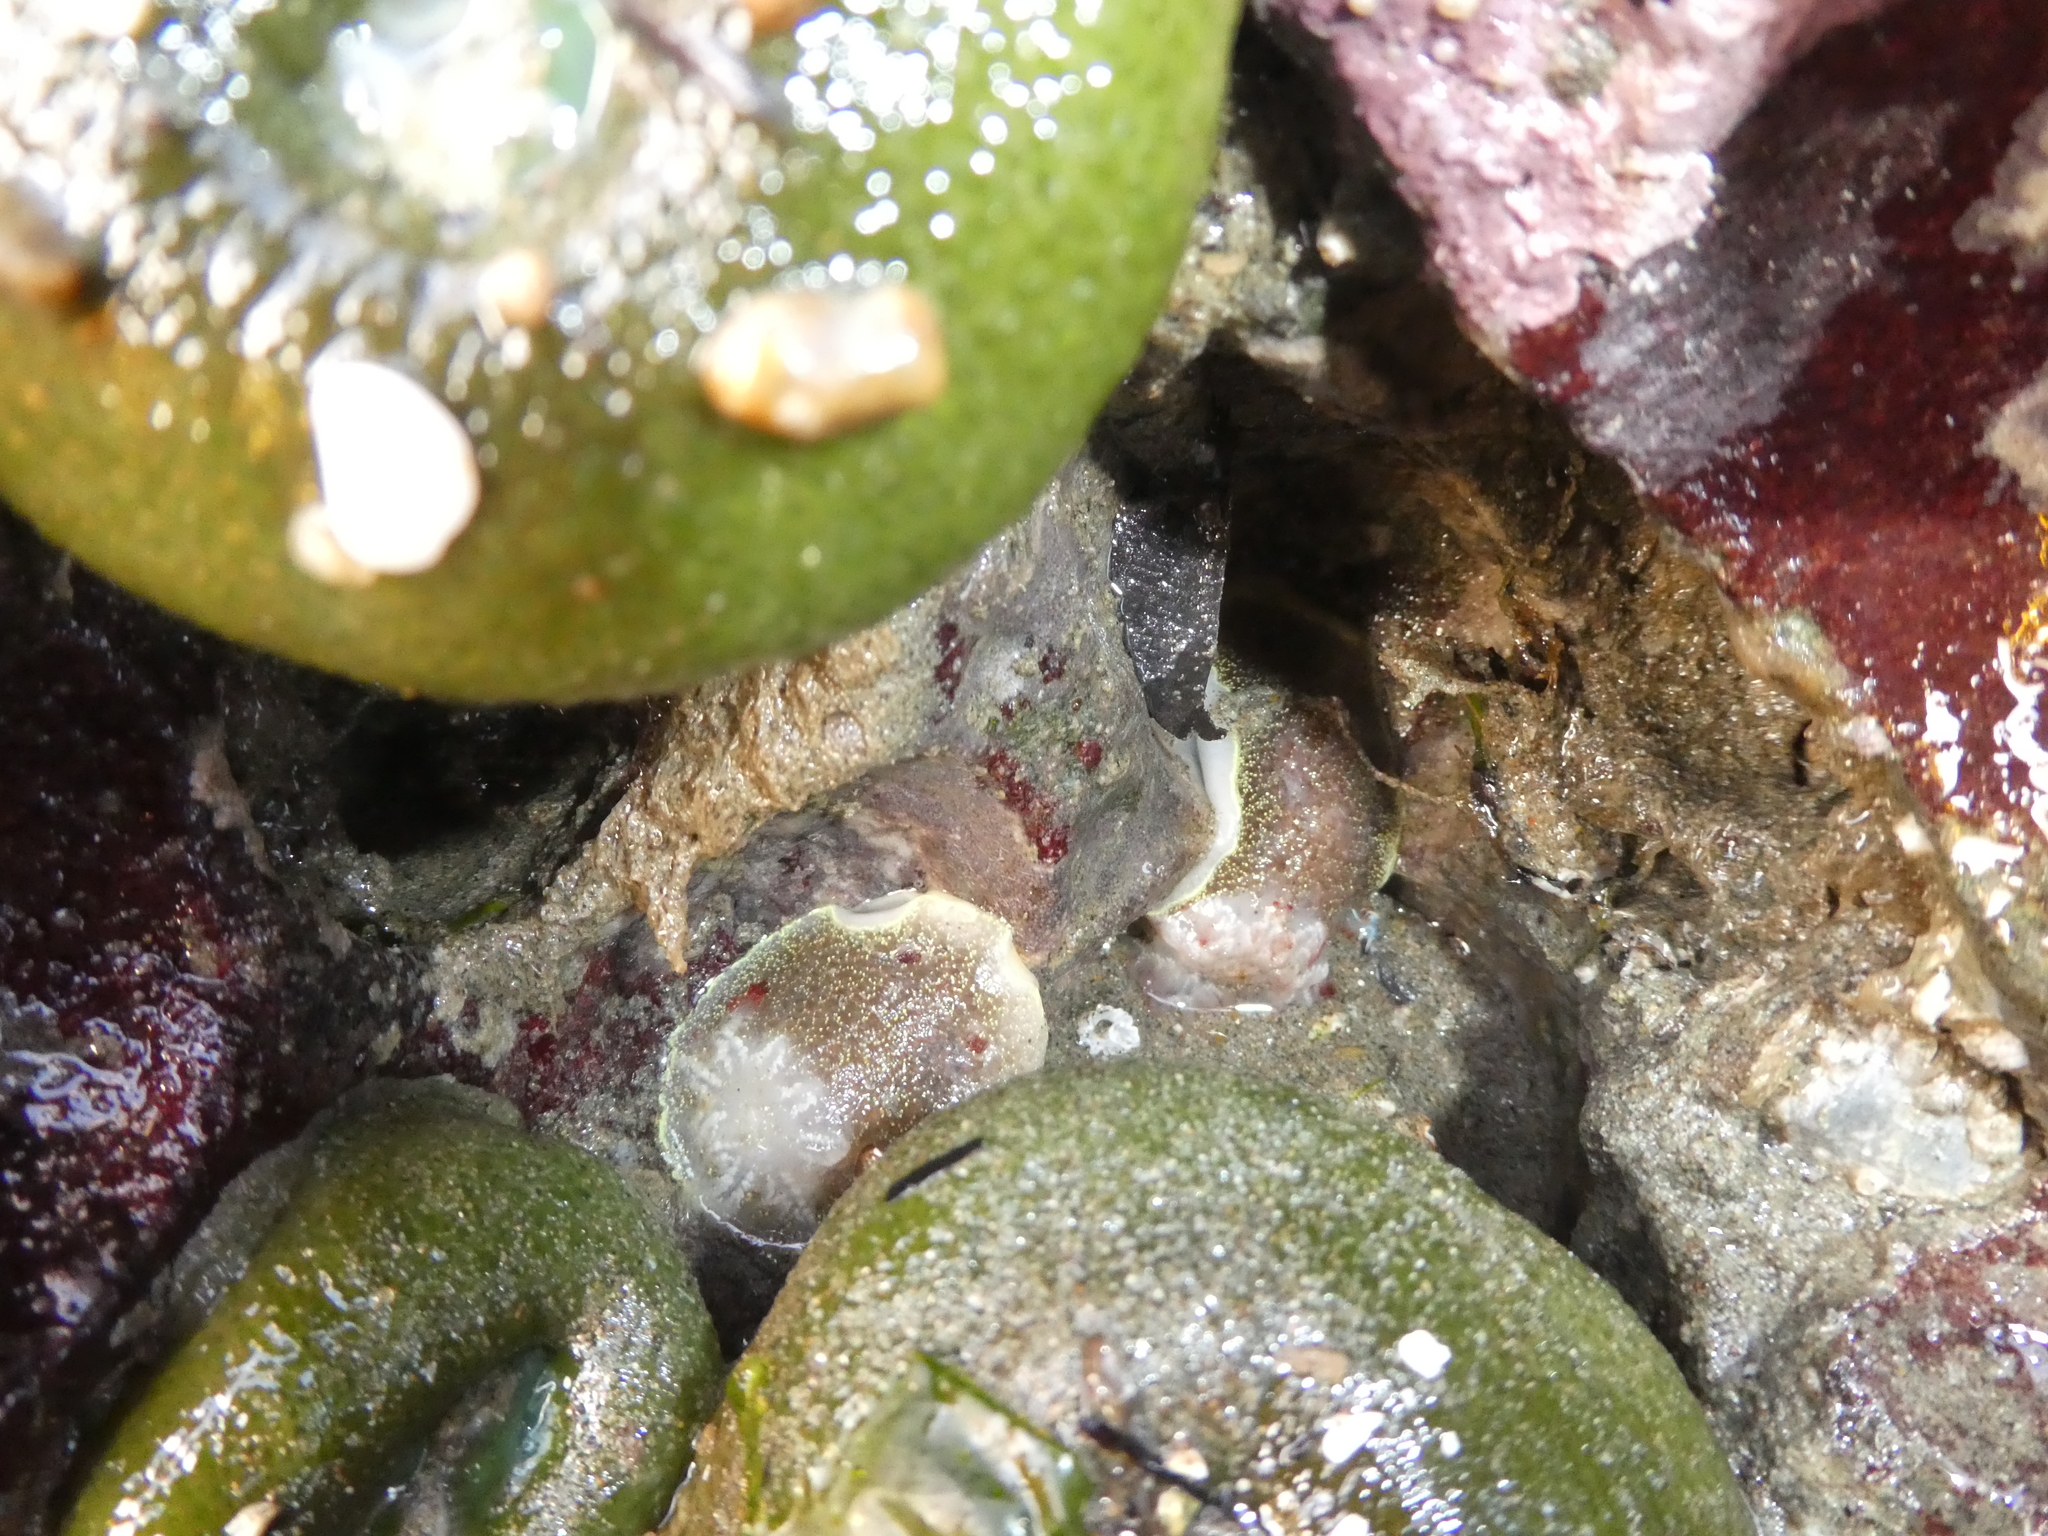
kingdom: Animalia
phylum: Mollusca
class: Gastropoda
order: Nudibranchia
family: Onchidorididae
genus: Acanthodoris
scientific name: Acanthodoris nanaimoensis
